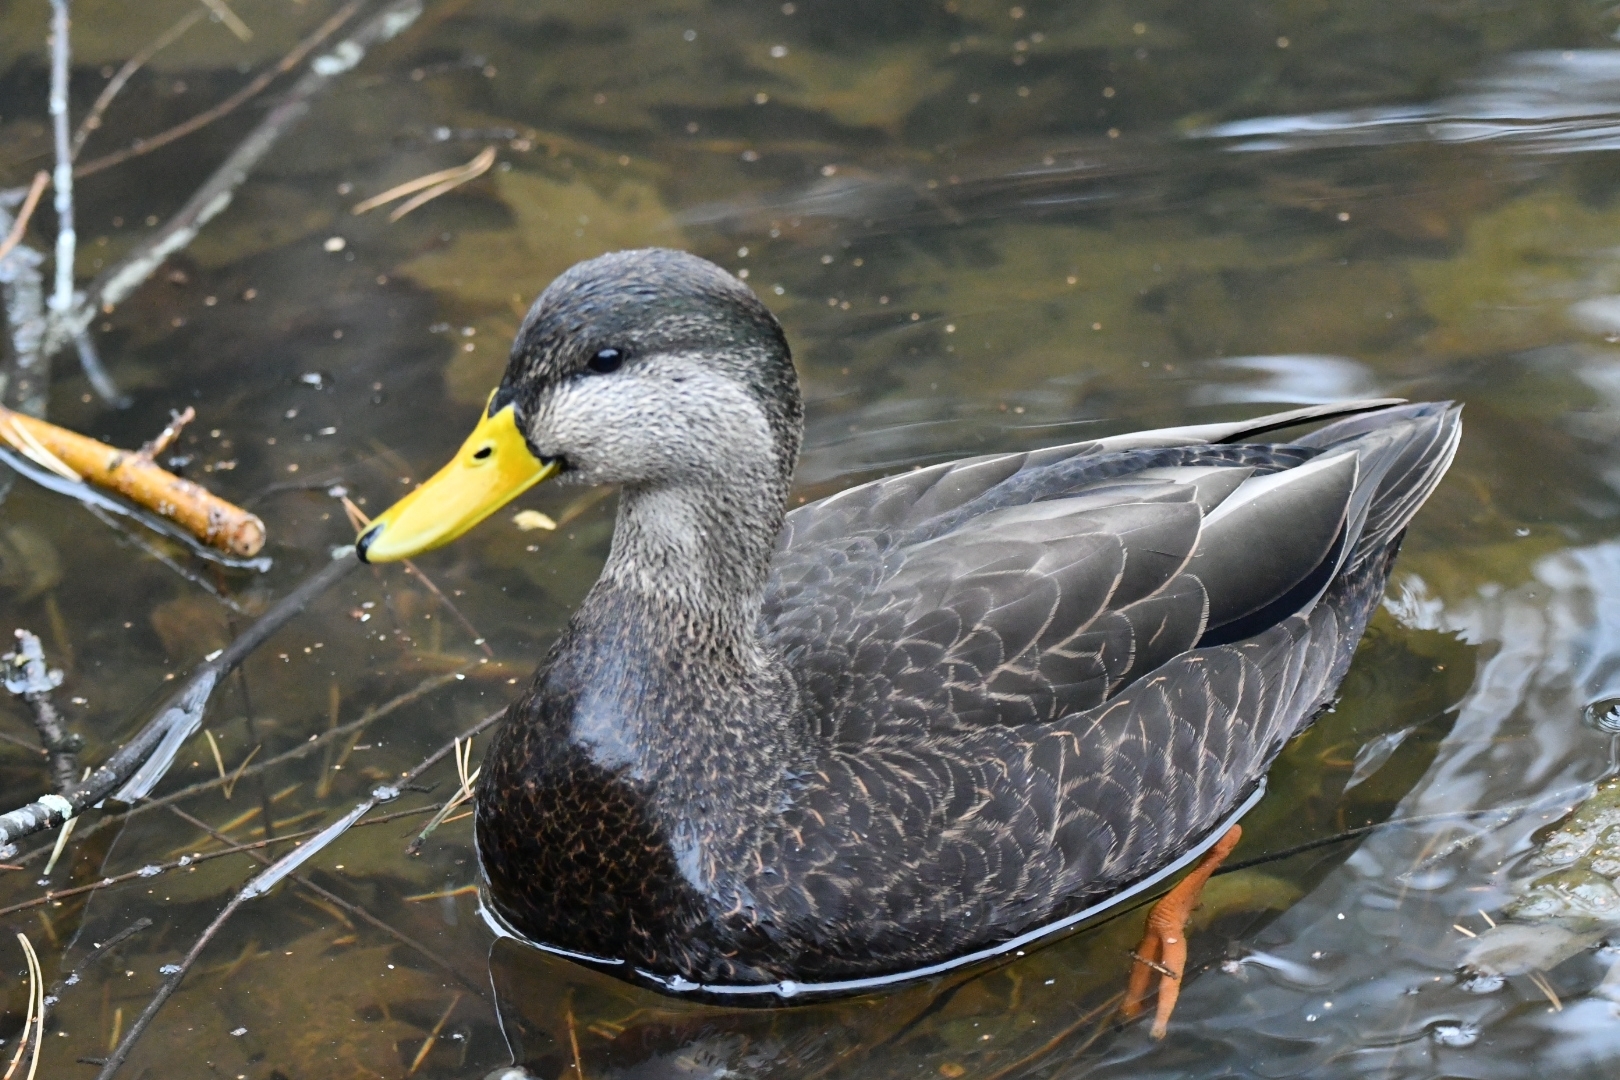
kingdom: Animalia
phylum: Chordata
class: Aves
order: Anseriformes
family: Anatidae
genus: Anas
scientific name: Anas rubripes
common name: American black duck
